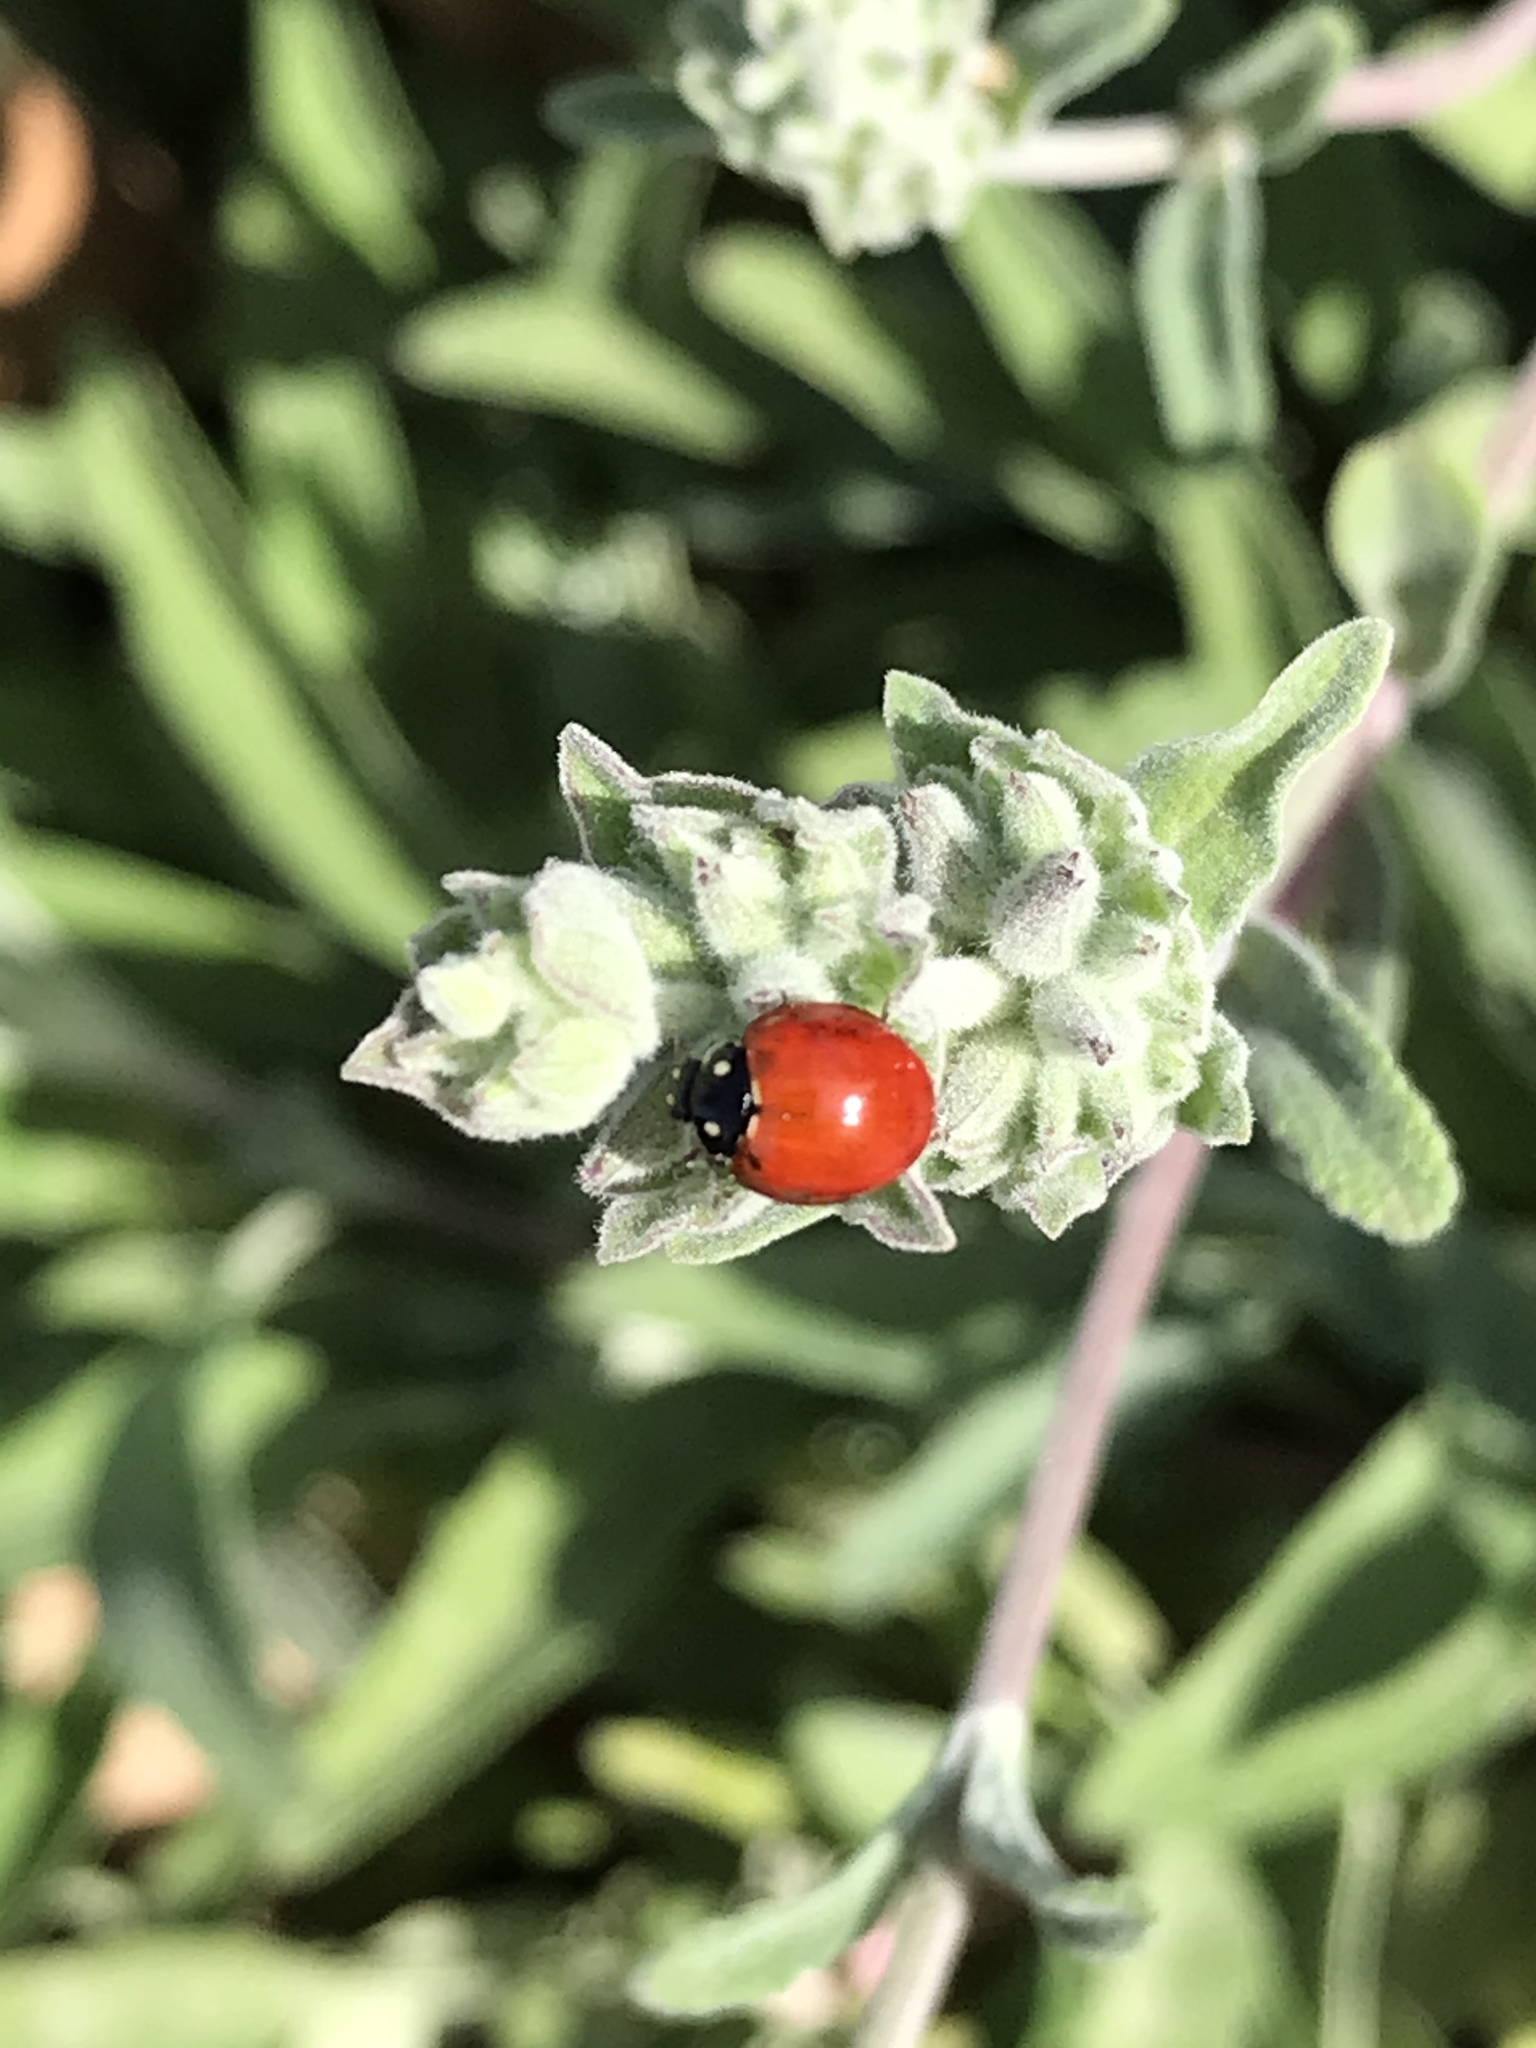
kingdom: Animalia
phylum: Arthropoda
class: Insecta
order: Coleoptera
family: Coccinellidae
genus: Cycloneda
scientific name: Cycloneda sanguinea
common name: Ladybird beetle
